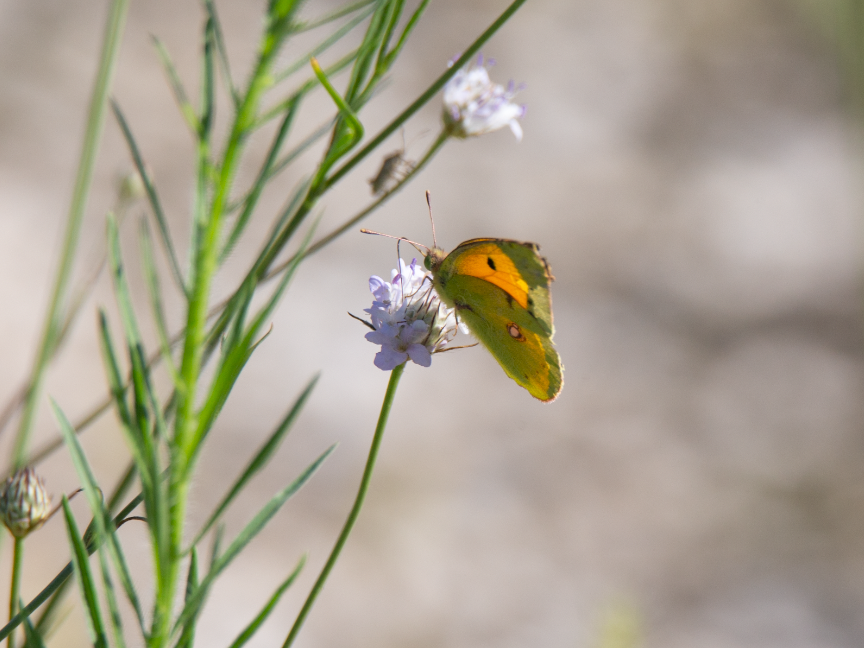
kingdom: Animalia
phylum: Arthropoda
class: Insecta
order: Lepidoptera
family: Pieridae
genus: Colias
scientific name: Colias croceus
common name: Clouded yellow
